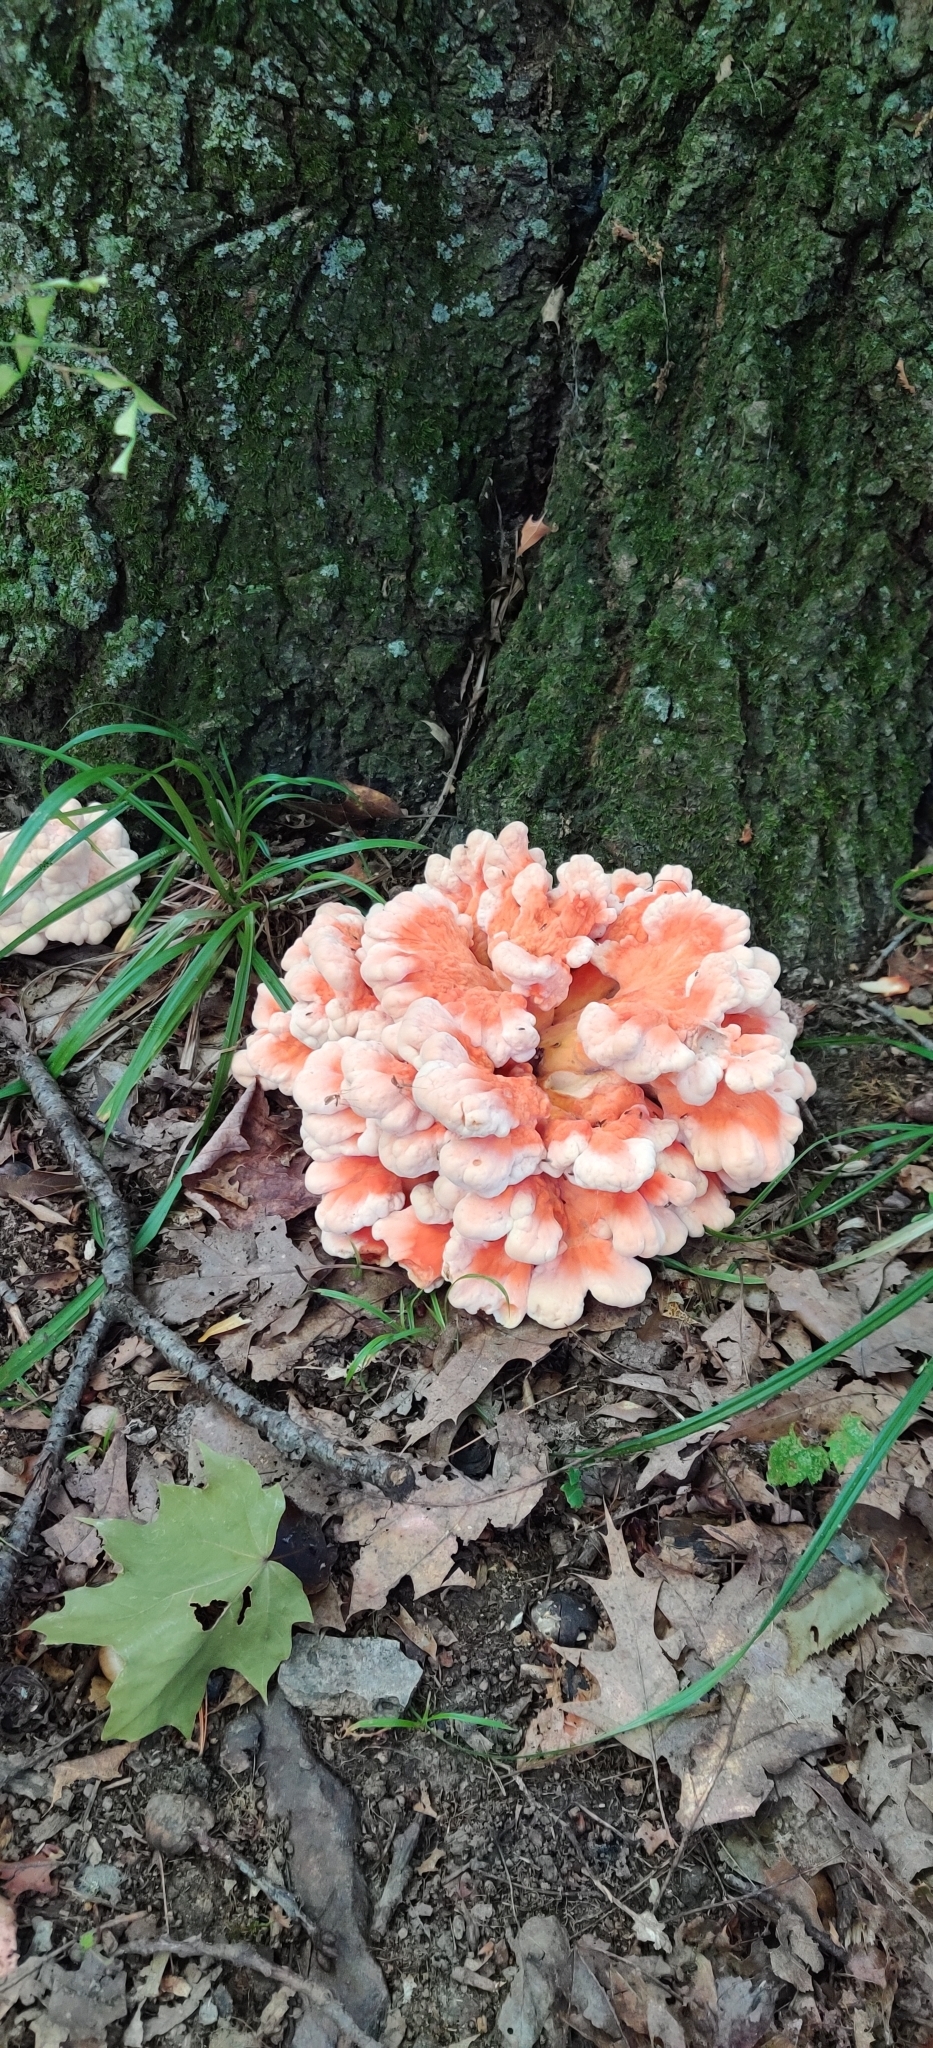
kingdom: Fungi
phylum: Basidiomycota
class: Agaricomycetes
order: Polyporales
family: Laetiporaceae
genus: Laetiporus
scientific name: Laetiporus sulphureus
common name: Chicken of the woods
